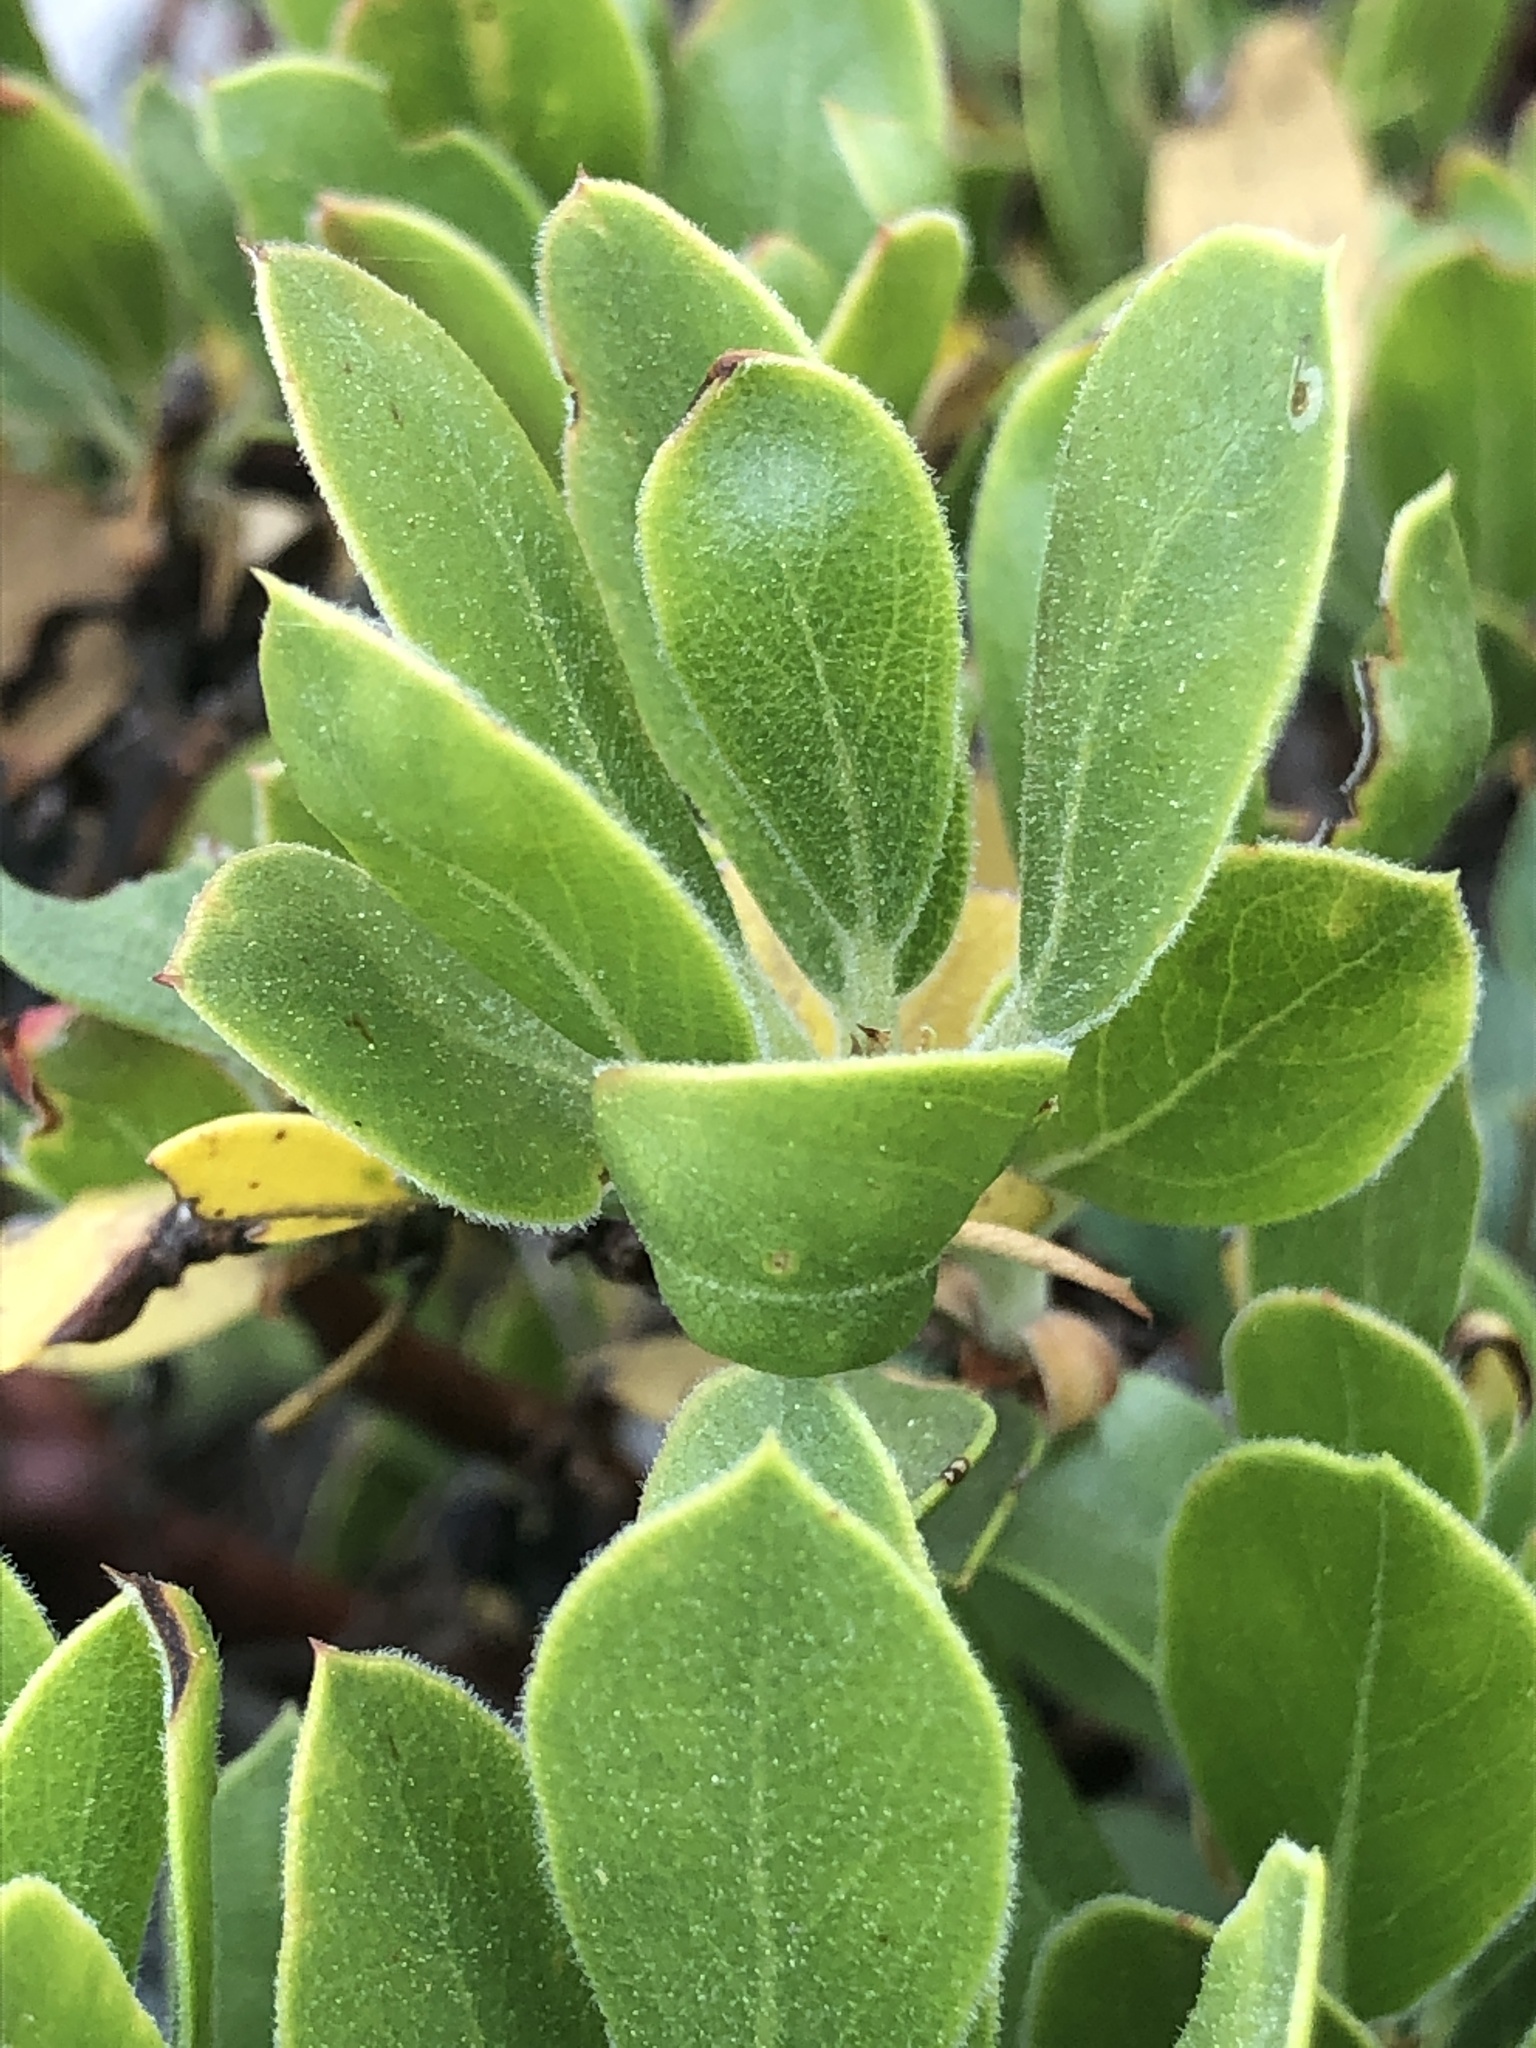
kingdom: Plantae
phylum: Tracheophyta
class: Magnoliopsida
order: Ericales
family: Ericaceae
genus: Arctostaphylos
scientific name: Arctostaphylos nevadensis
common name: Pinemat manzanita
